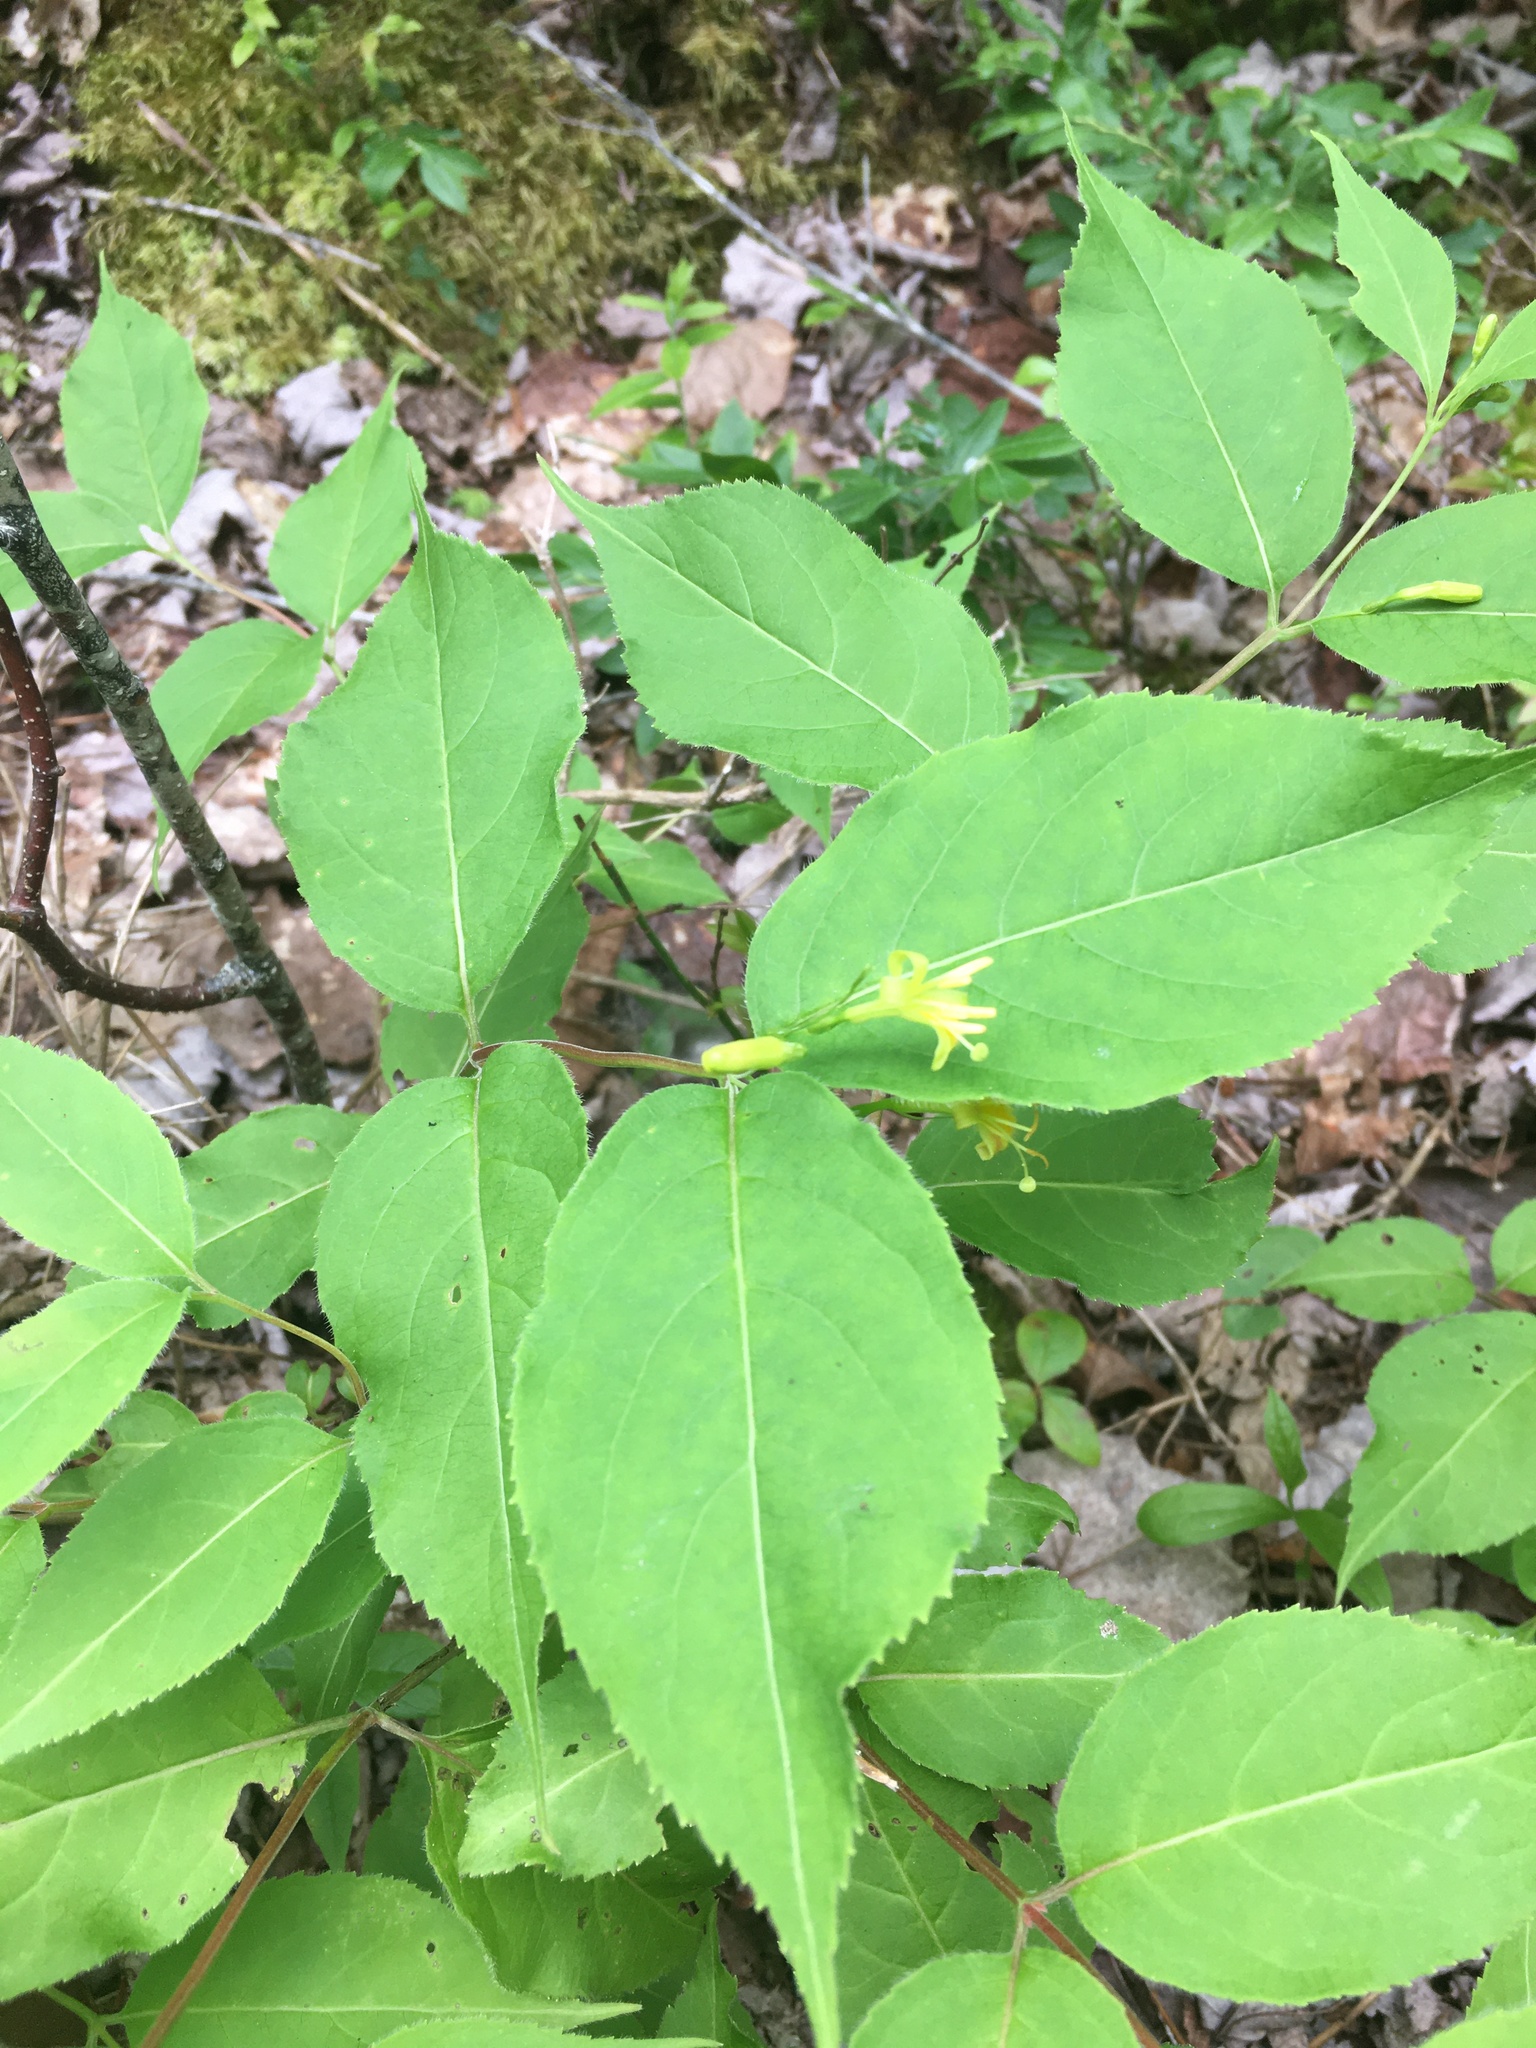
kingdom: Plantae
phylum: Tracheophyta
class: Magnoliopsida
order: Dipsacales
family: Caprifoliaceae
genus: Diervilla
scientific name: Diervilla lonicera
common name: Bush-honeysuckle
